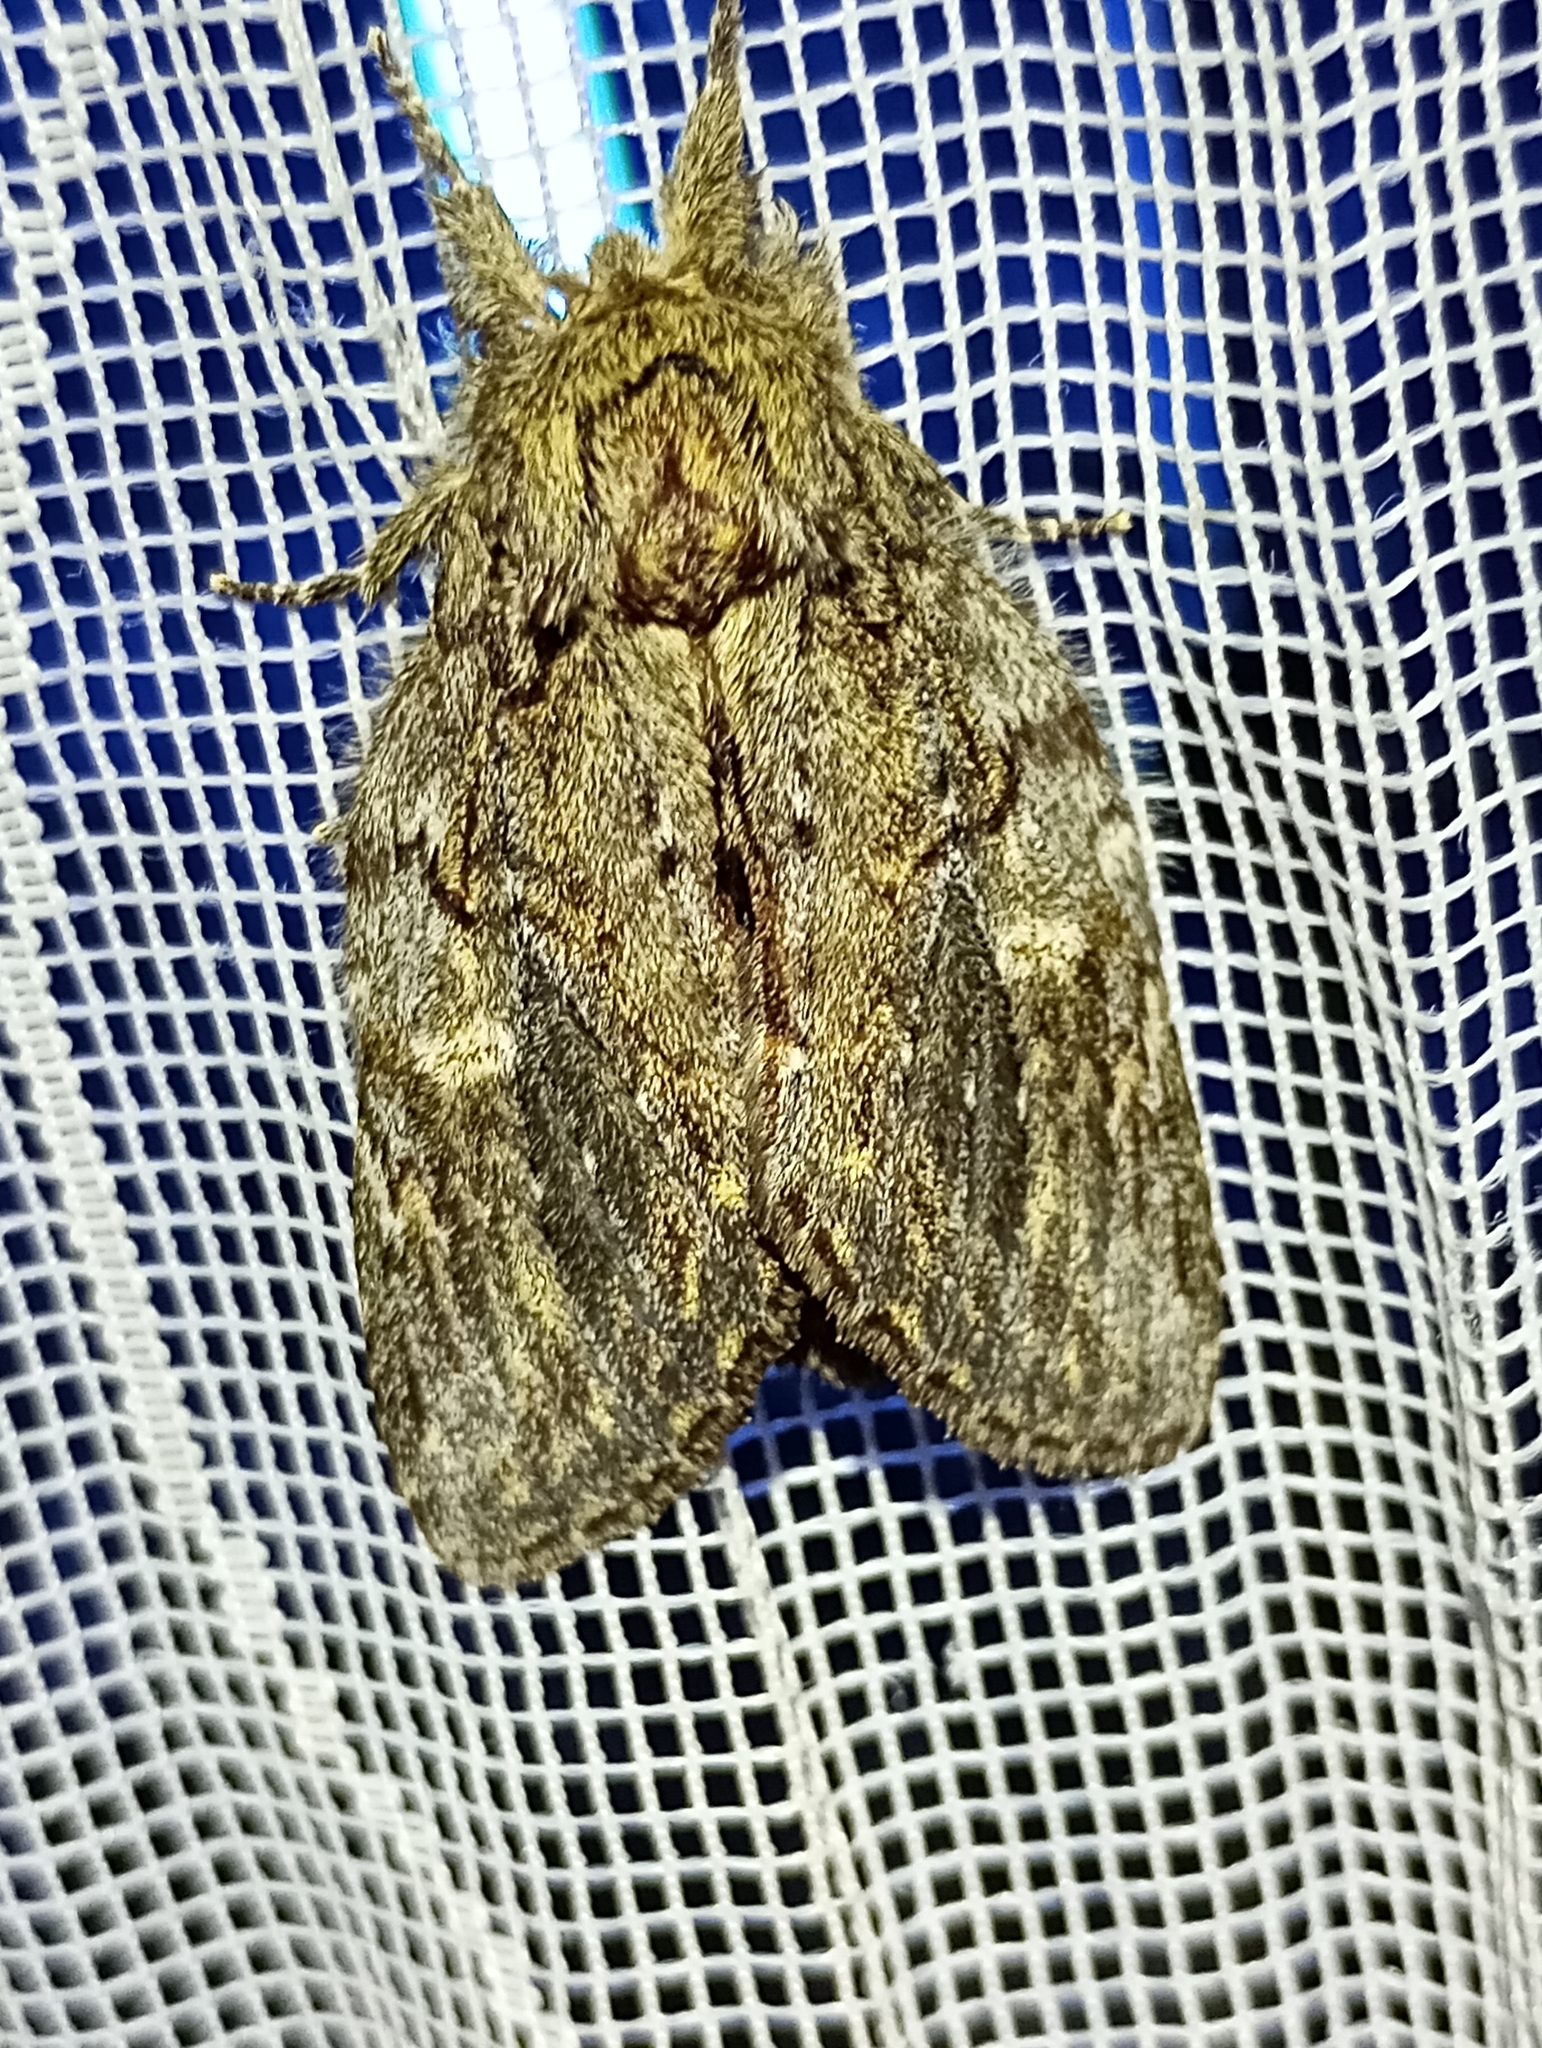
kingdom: Animalia
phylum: Arthropoda
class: Insecta
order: Lepidoptera
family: Notodontidae
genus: Peridea
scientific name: Peridea anceps
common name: Great prominent
